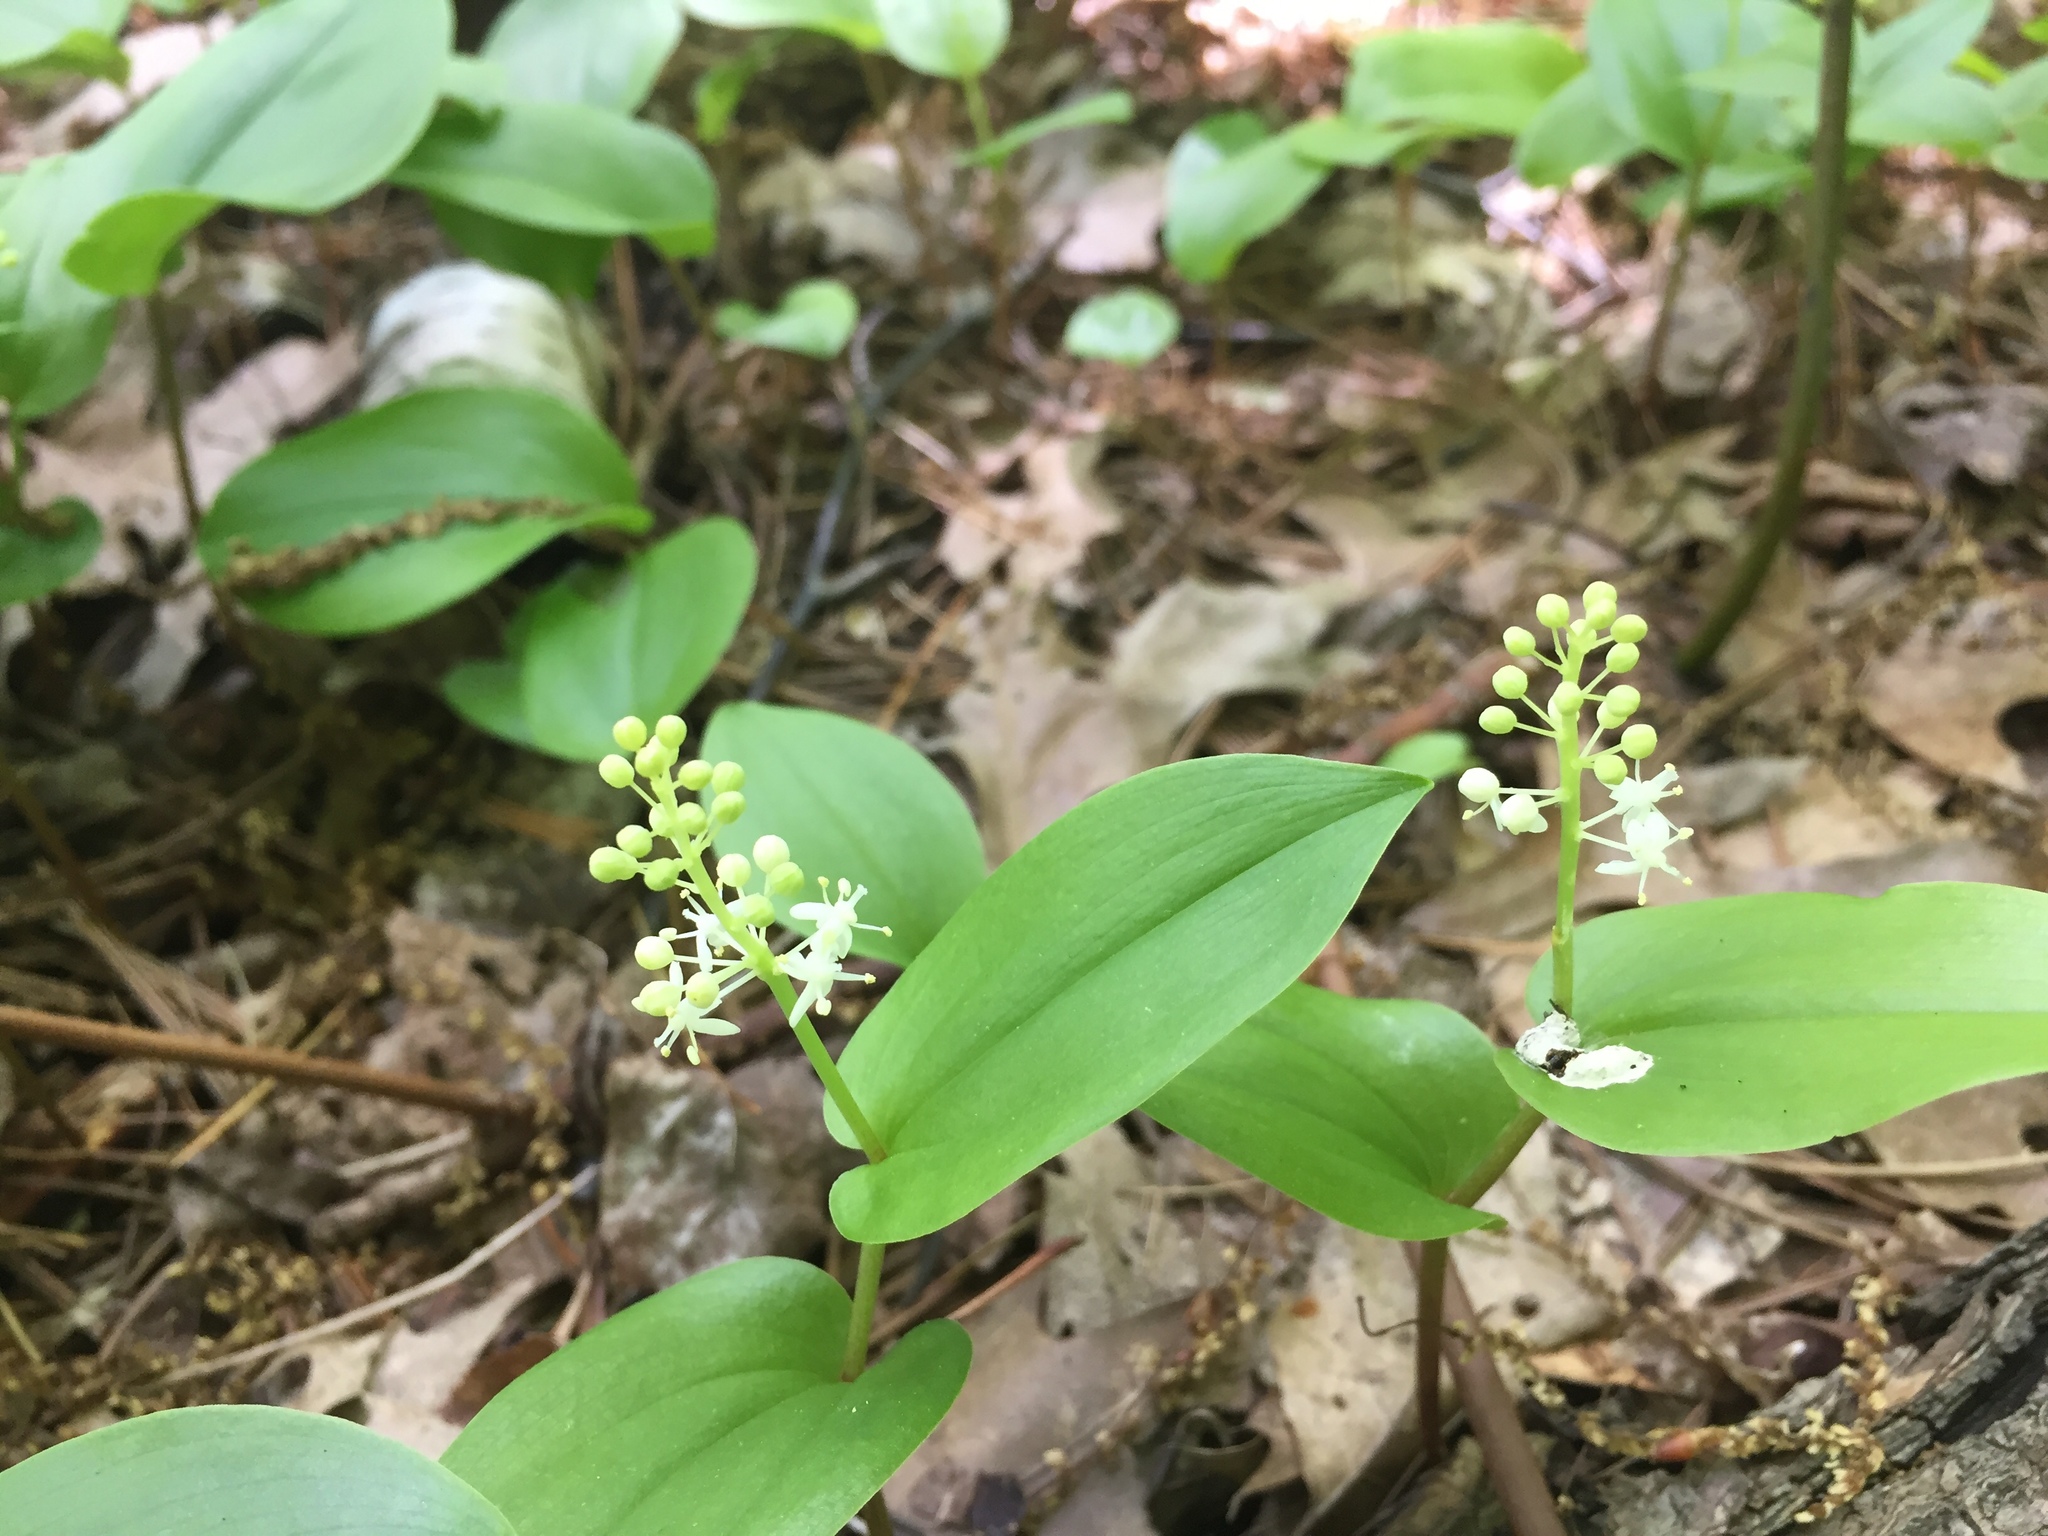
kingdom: Plantae
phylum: Tracheophyta
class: Liliopsida
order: Asparagales
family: Asparagaceae
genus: Maianthemum
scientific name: Maianthemum canadense
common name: False lily-of-the-valley
